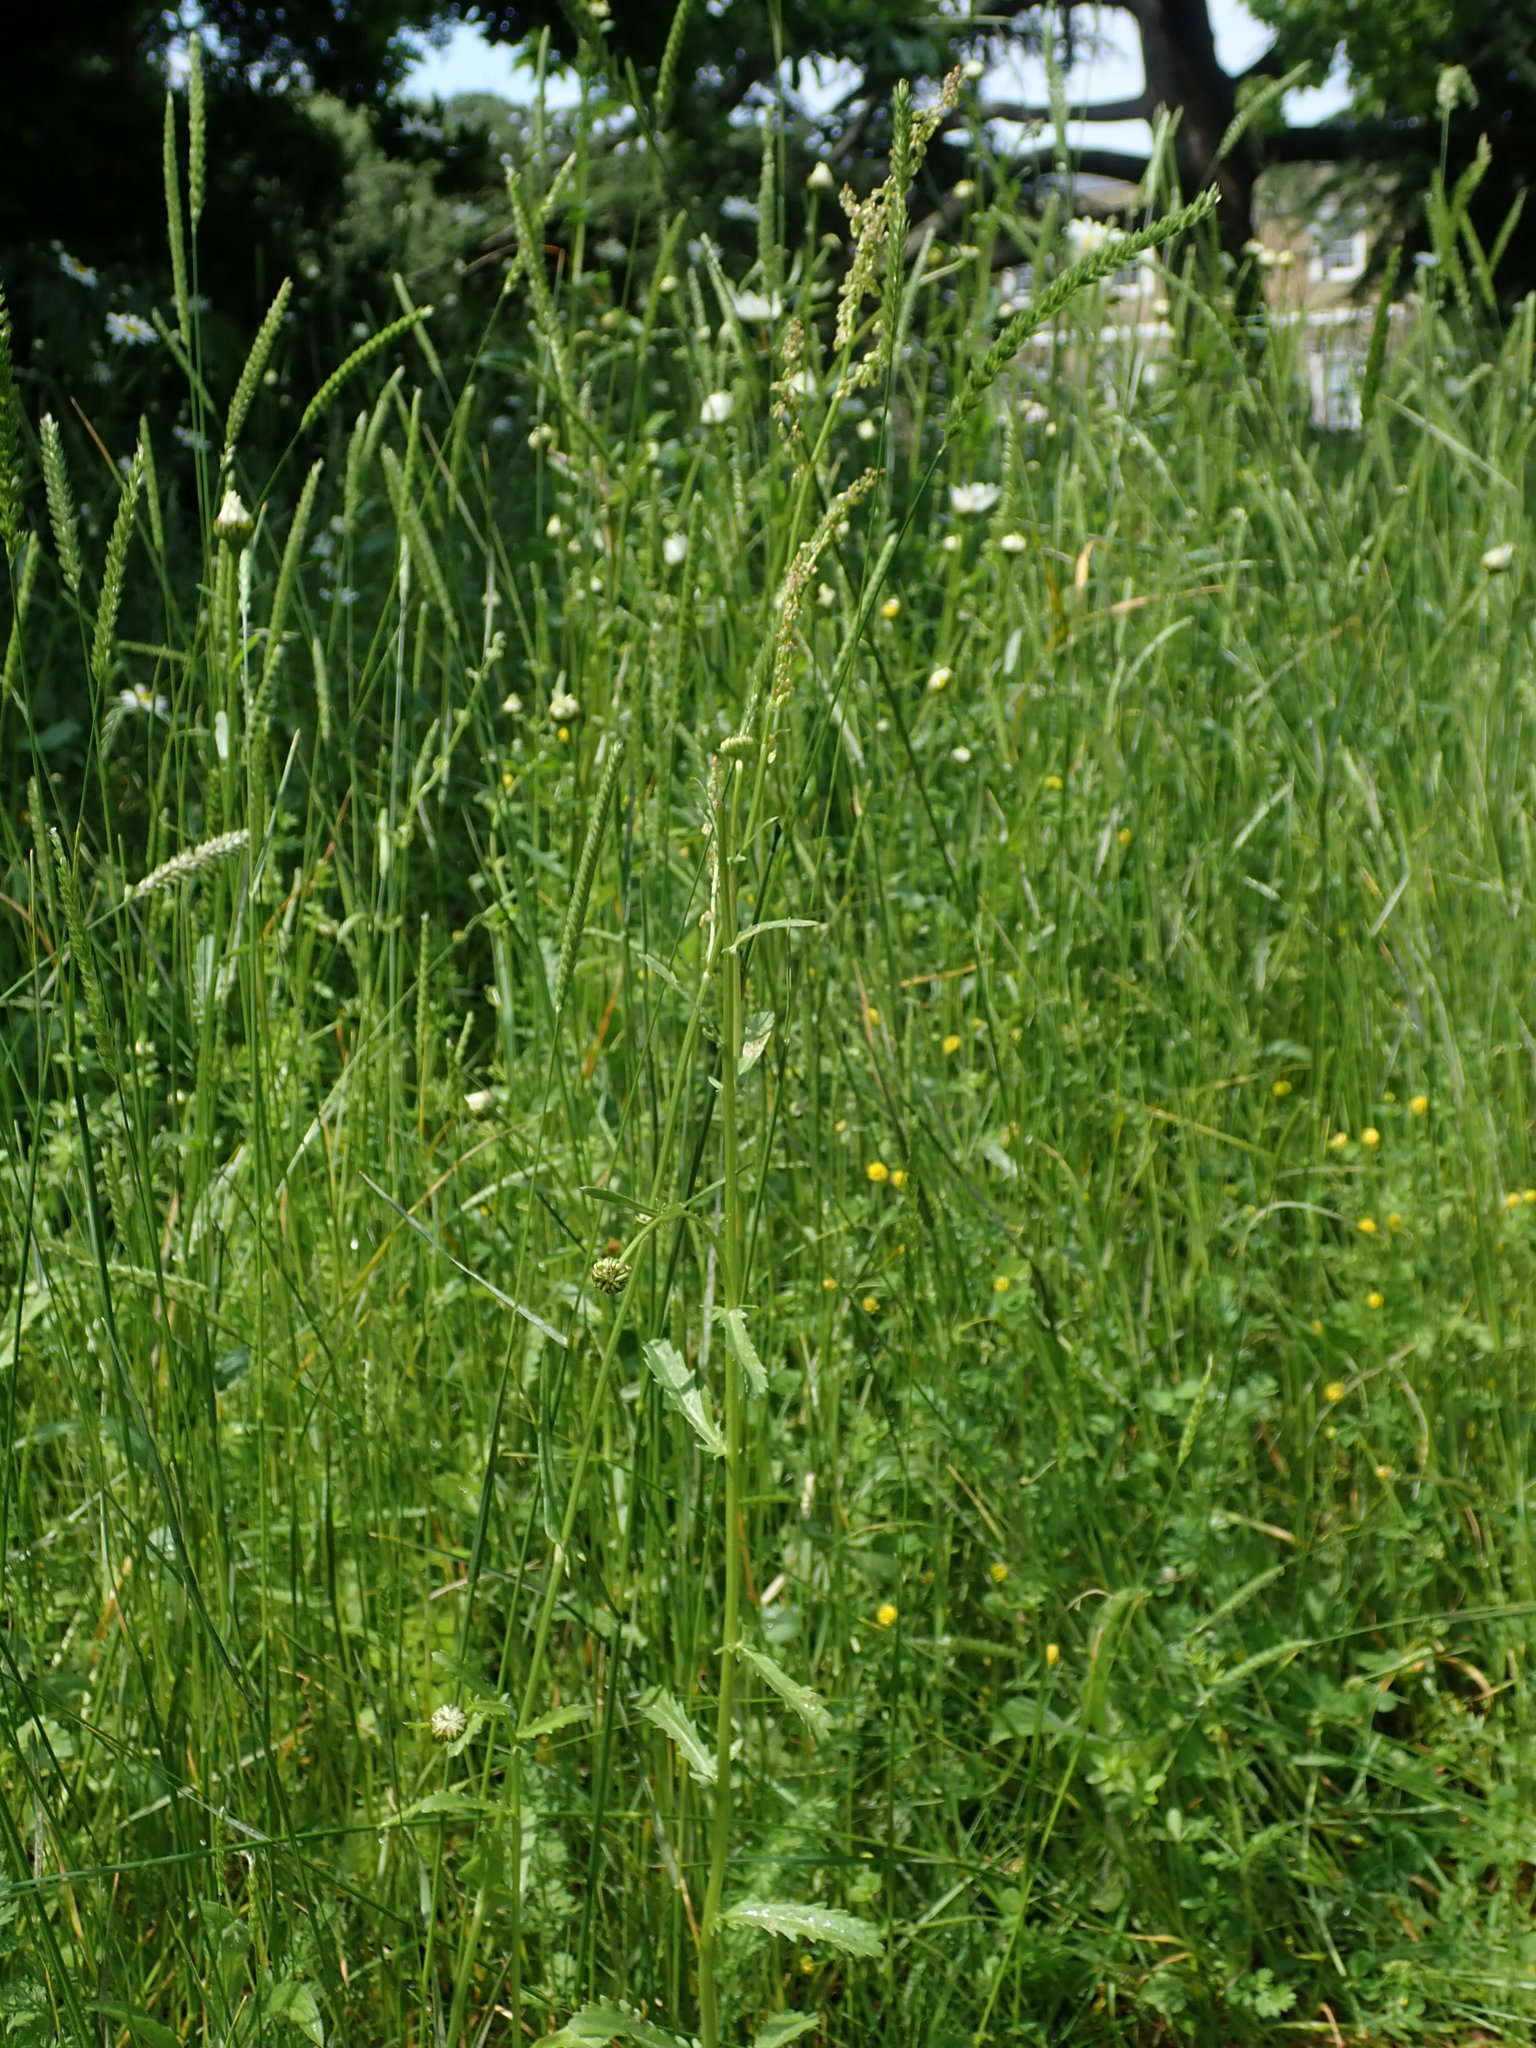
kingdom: Plantae
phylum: Tracheophyta
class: Magnoliopsida
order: Caryophyllales
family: Polygonaceae
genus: Rumex
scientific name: Rumex acetosa
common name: Garden sorrel
